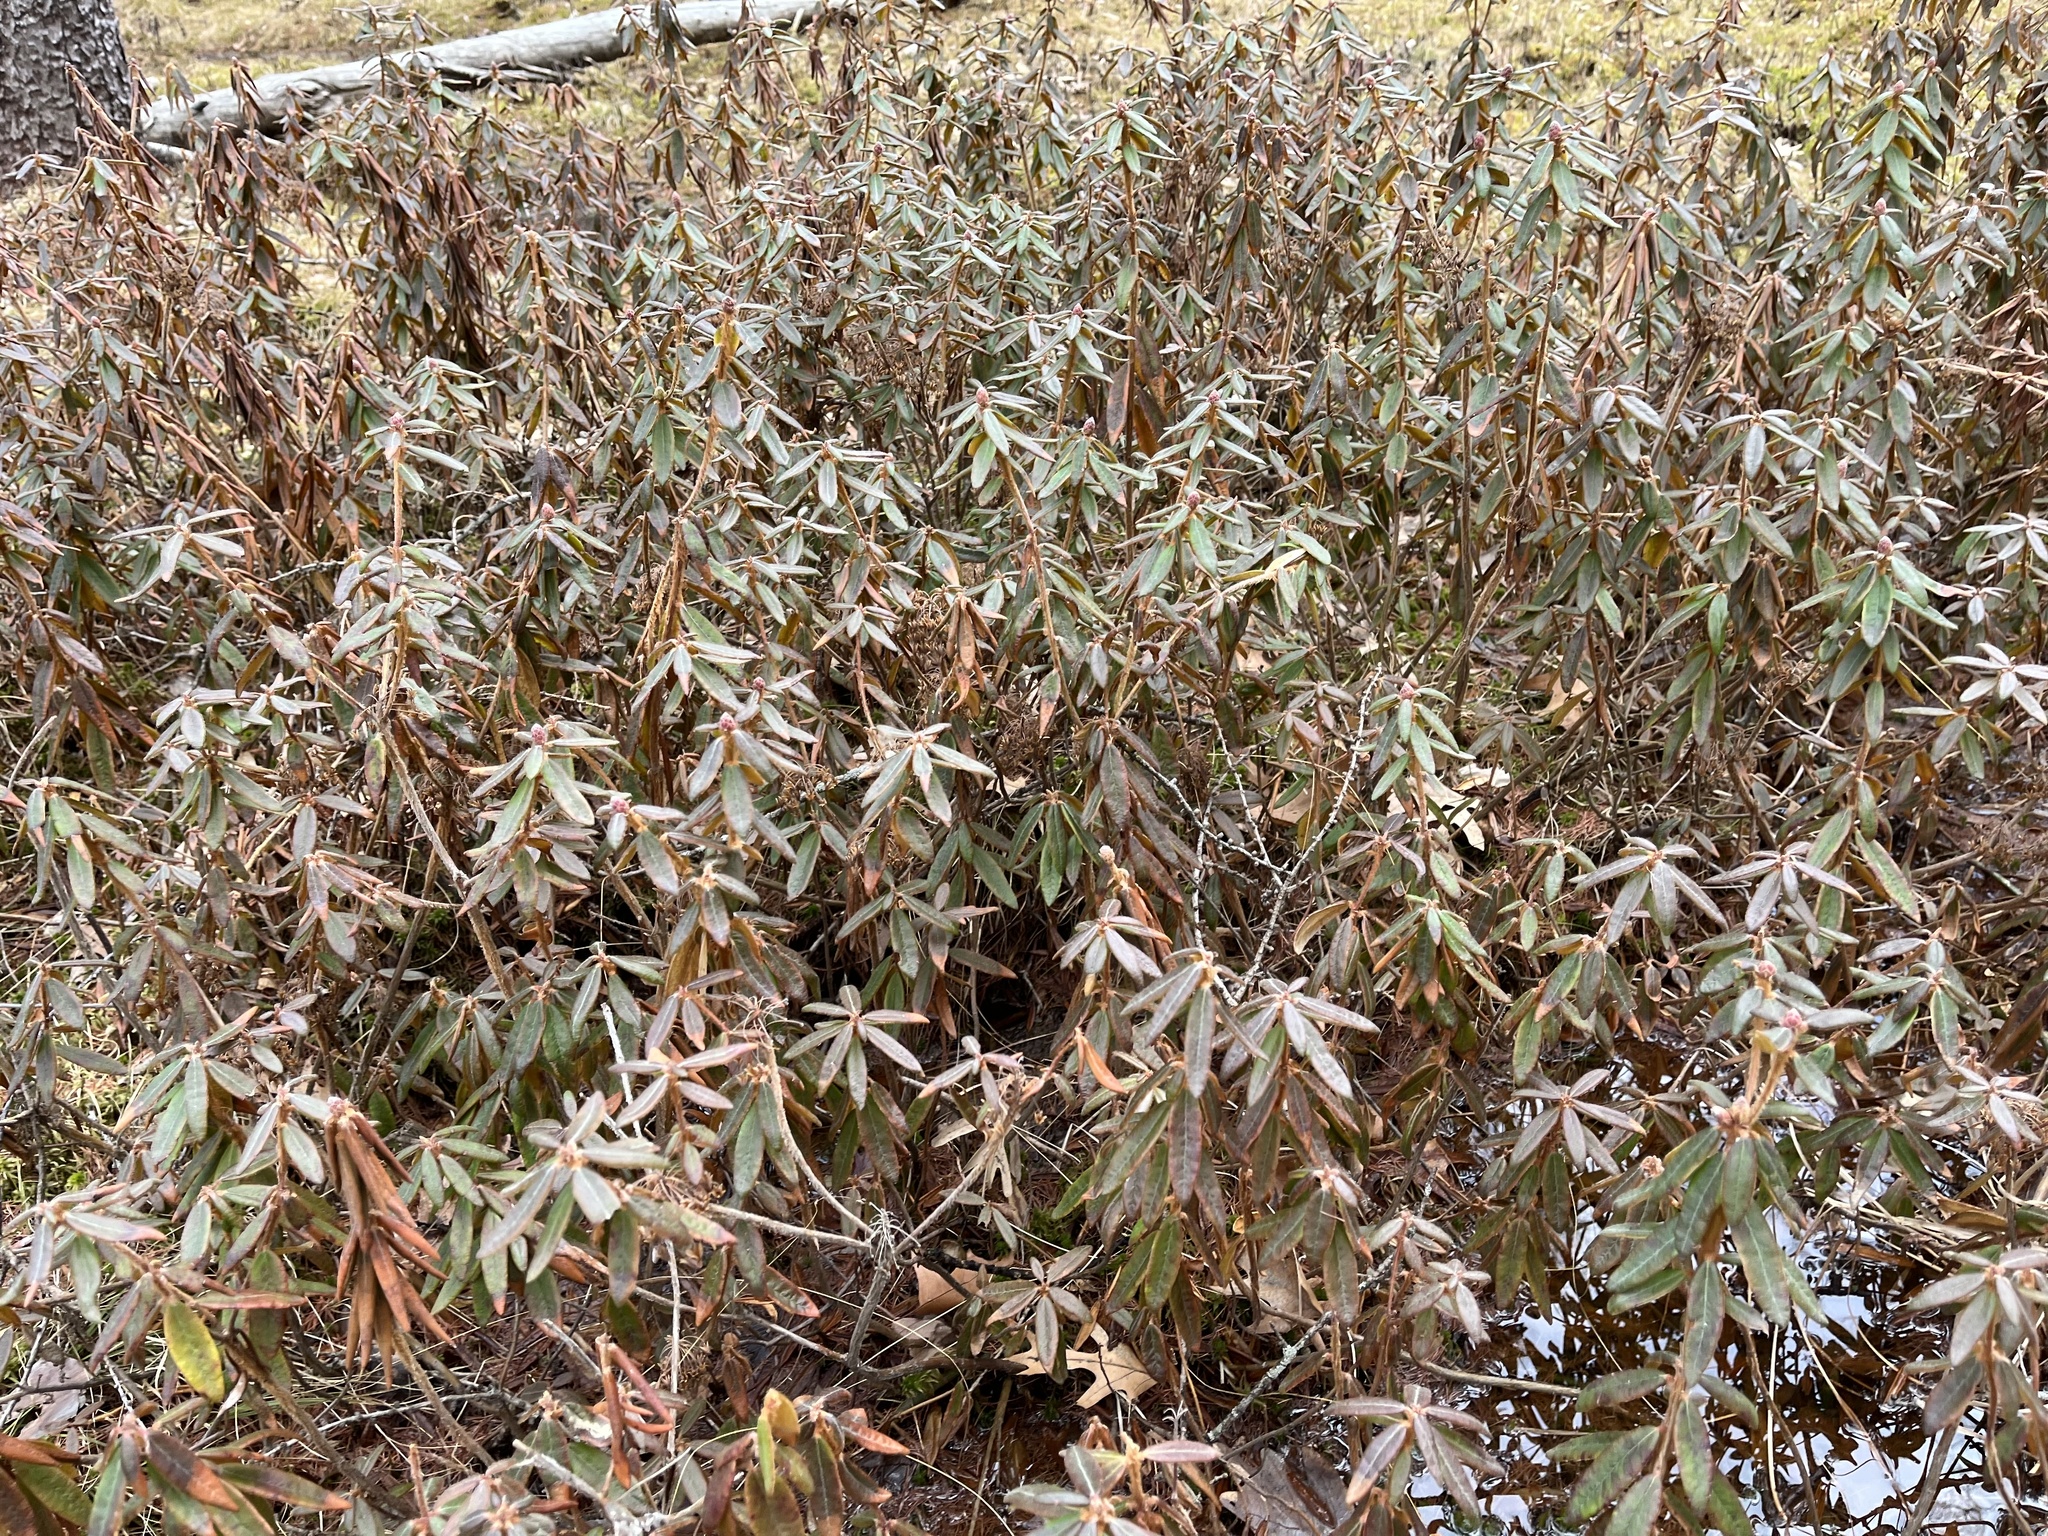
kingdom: Plantae
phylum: Tracheophyta
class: Magnoliopsida
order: Ericales
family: Ericaceae
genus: Rhododendron
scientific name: Rhododendron groenlandicum
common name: Bog labrador tea
